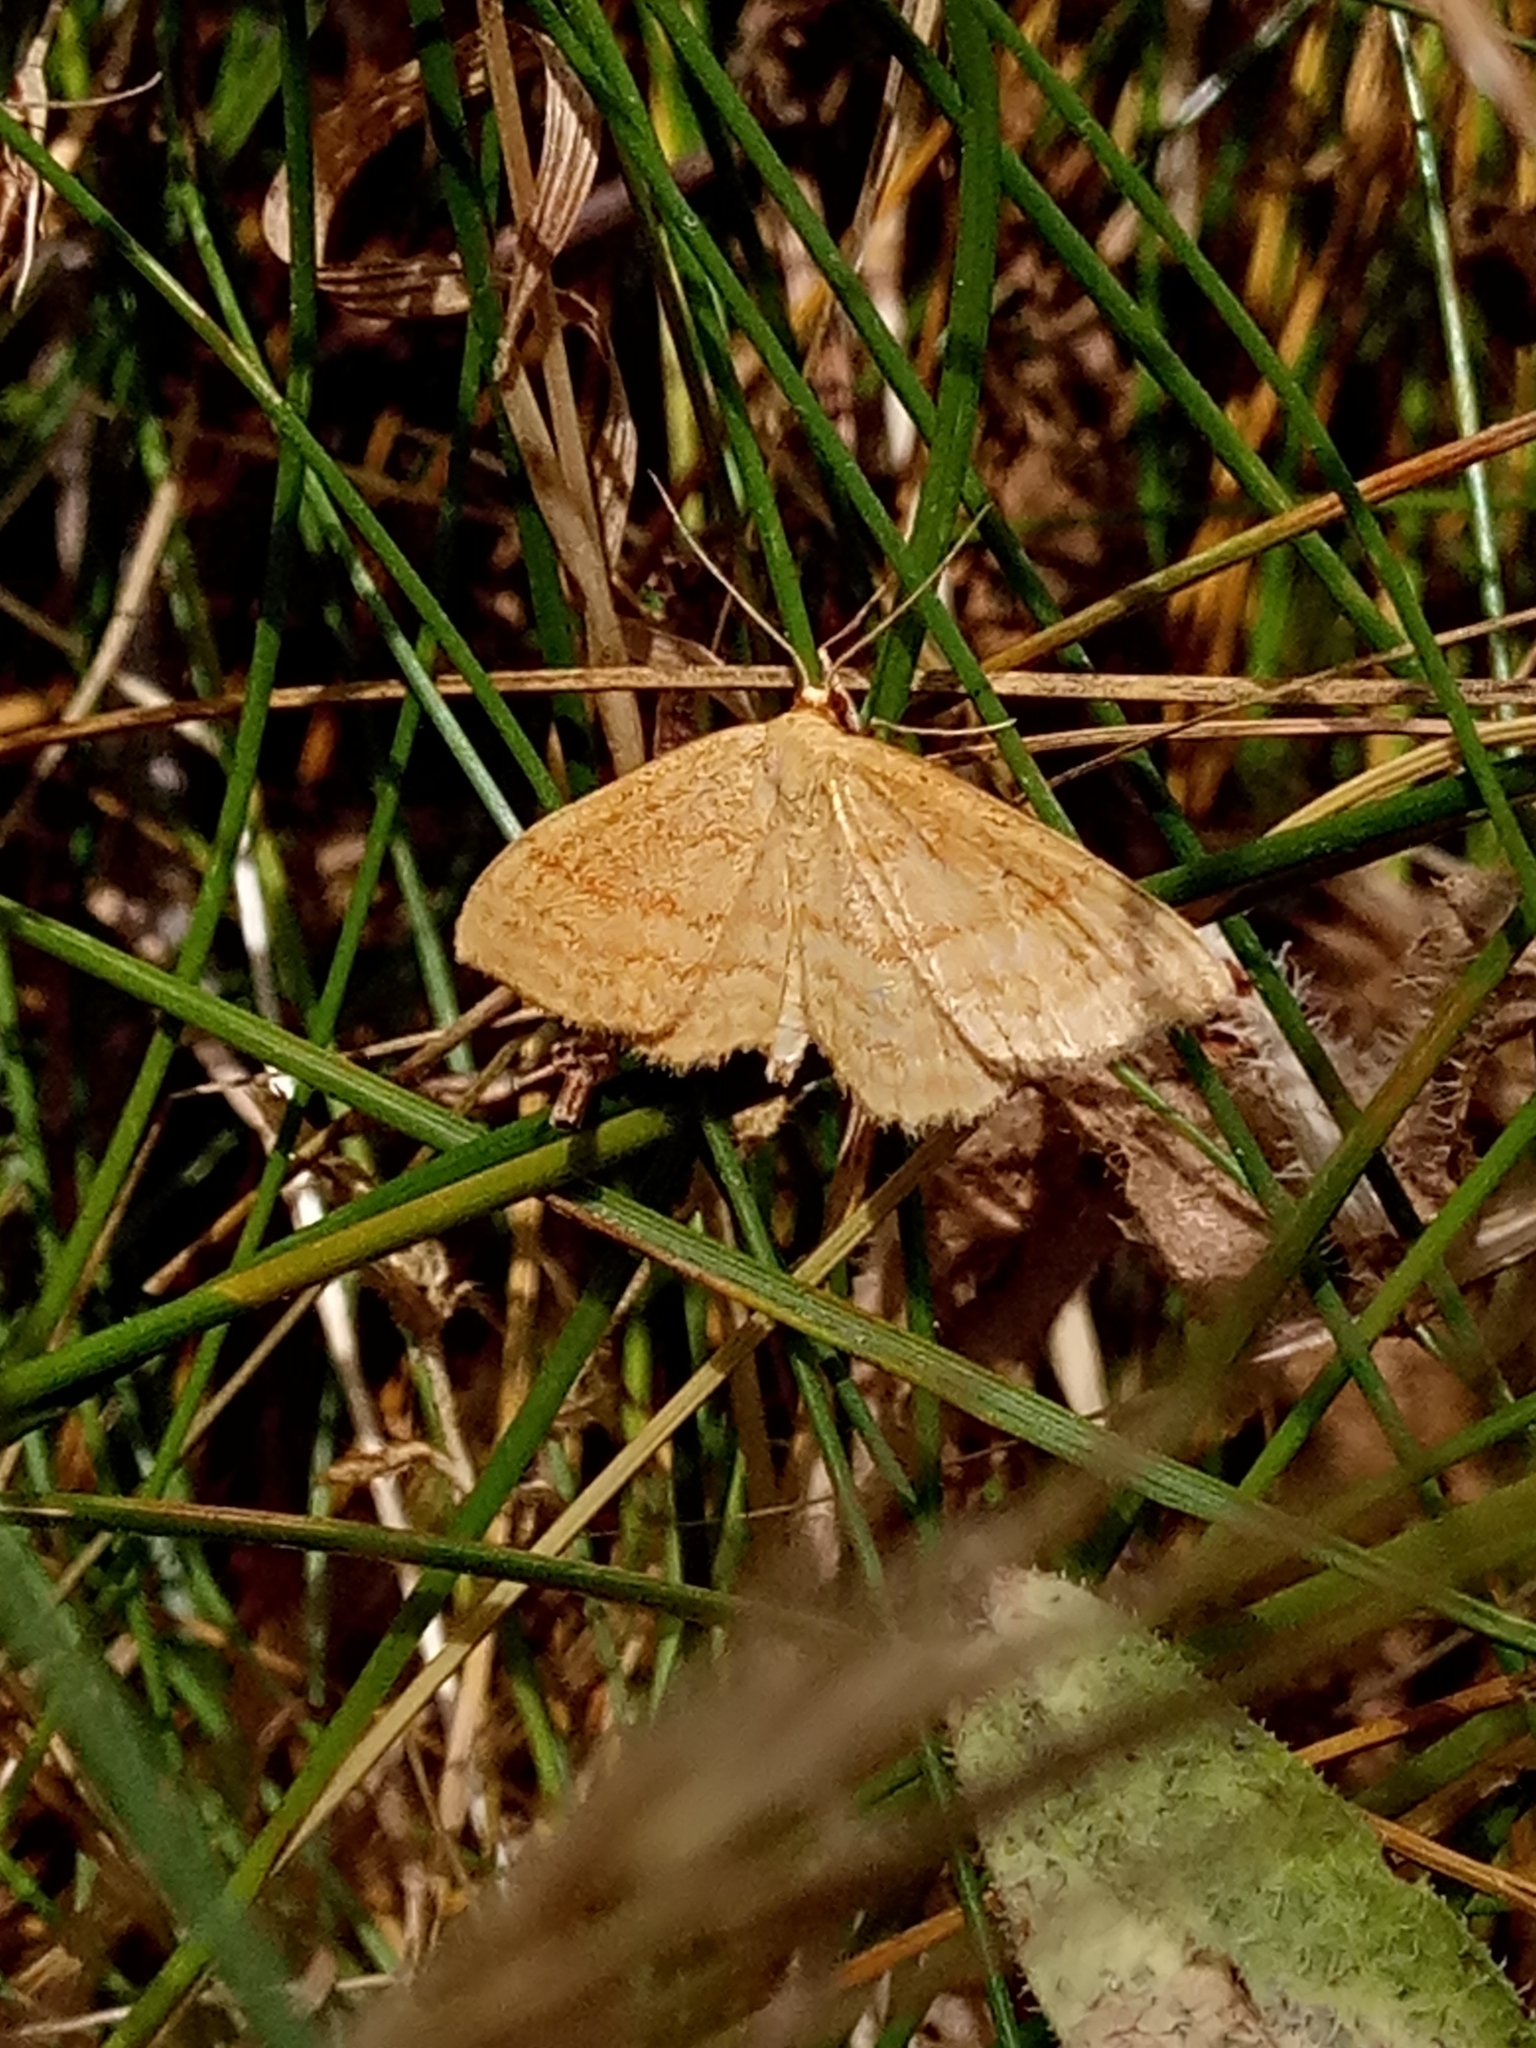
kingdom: Animalia
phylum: Arthropoda
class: Insecta
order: Lepidoptera
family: Geometridae
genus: Idaea
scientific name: Idaea ochrata
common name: Bright wave
